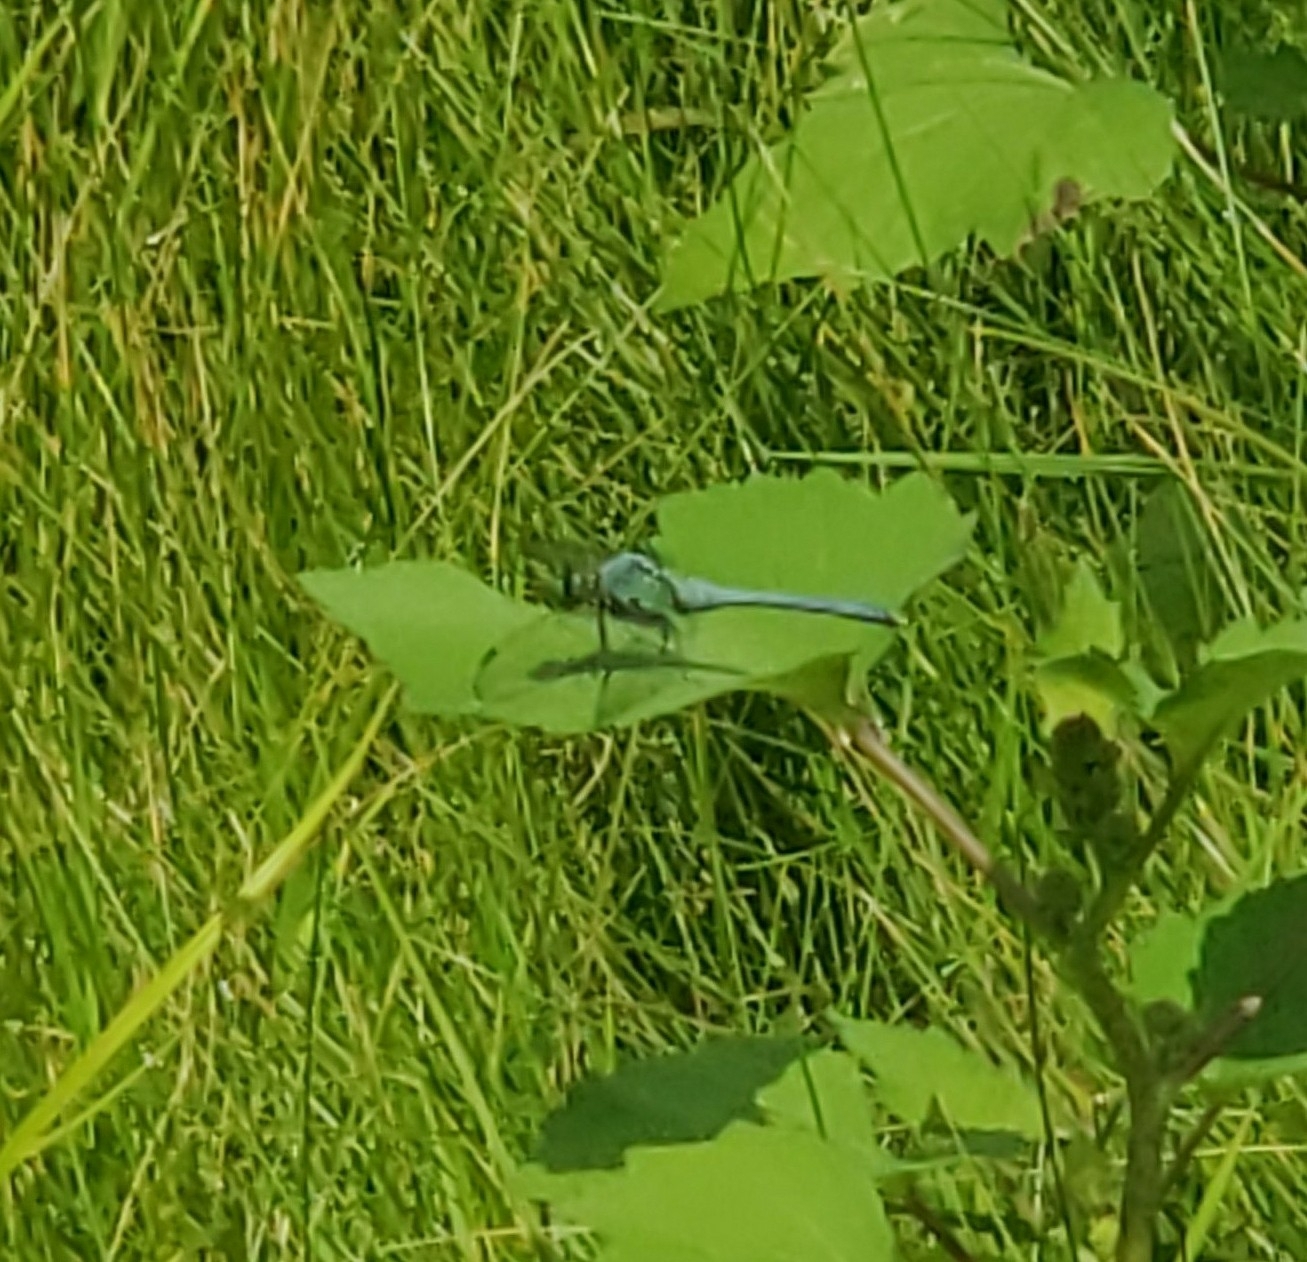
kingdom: Animalia
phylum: Arthropoda
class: Insecta
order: Odonata
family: Libellulidae
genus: Erythemis
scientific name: Erythemis simplicicollis
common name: Eastern pondhawk
